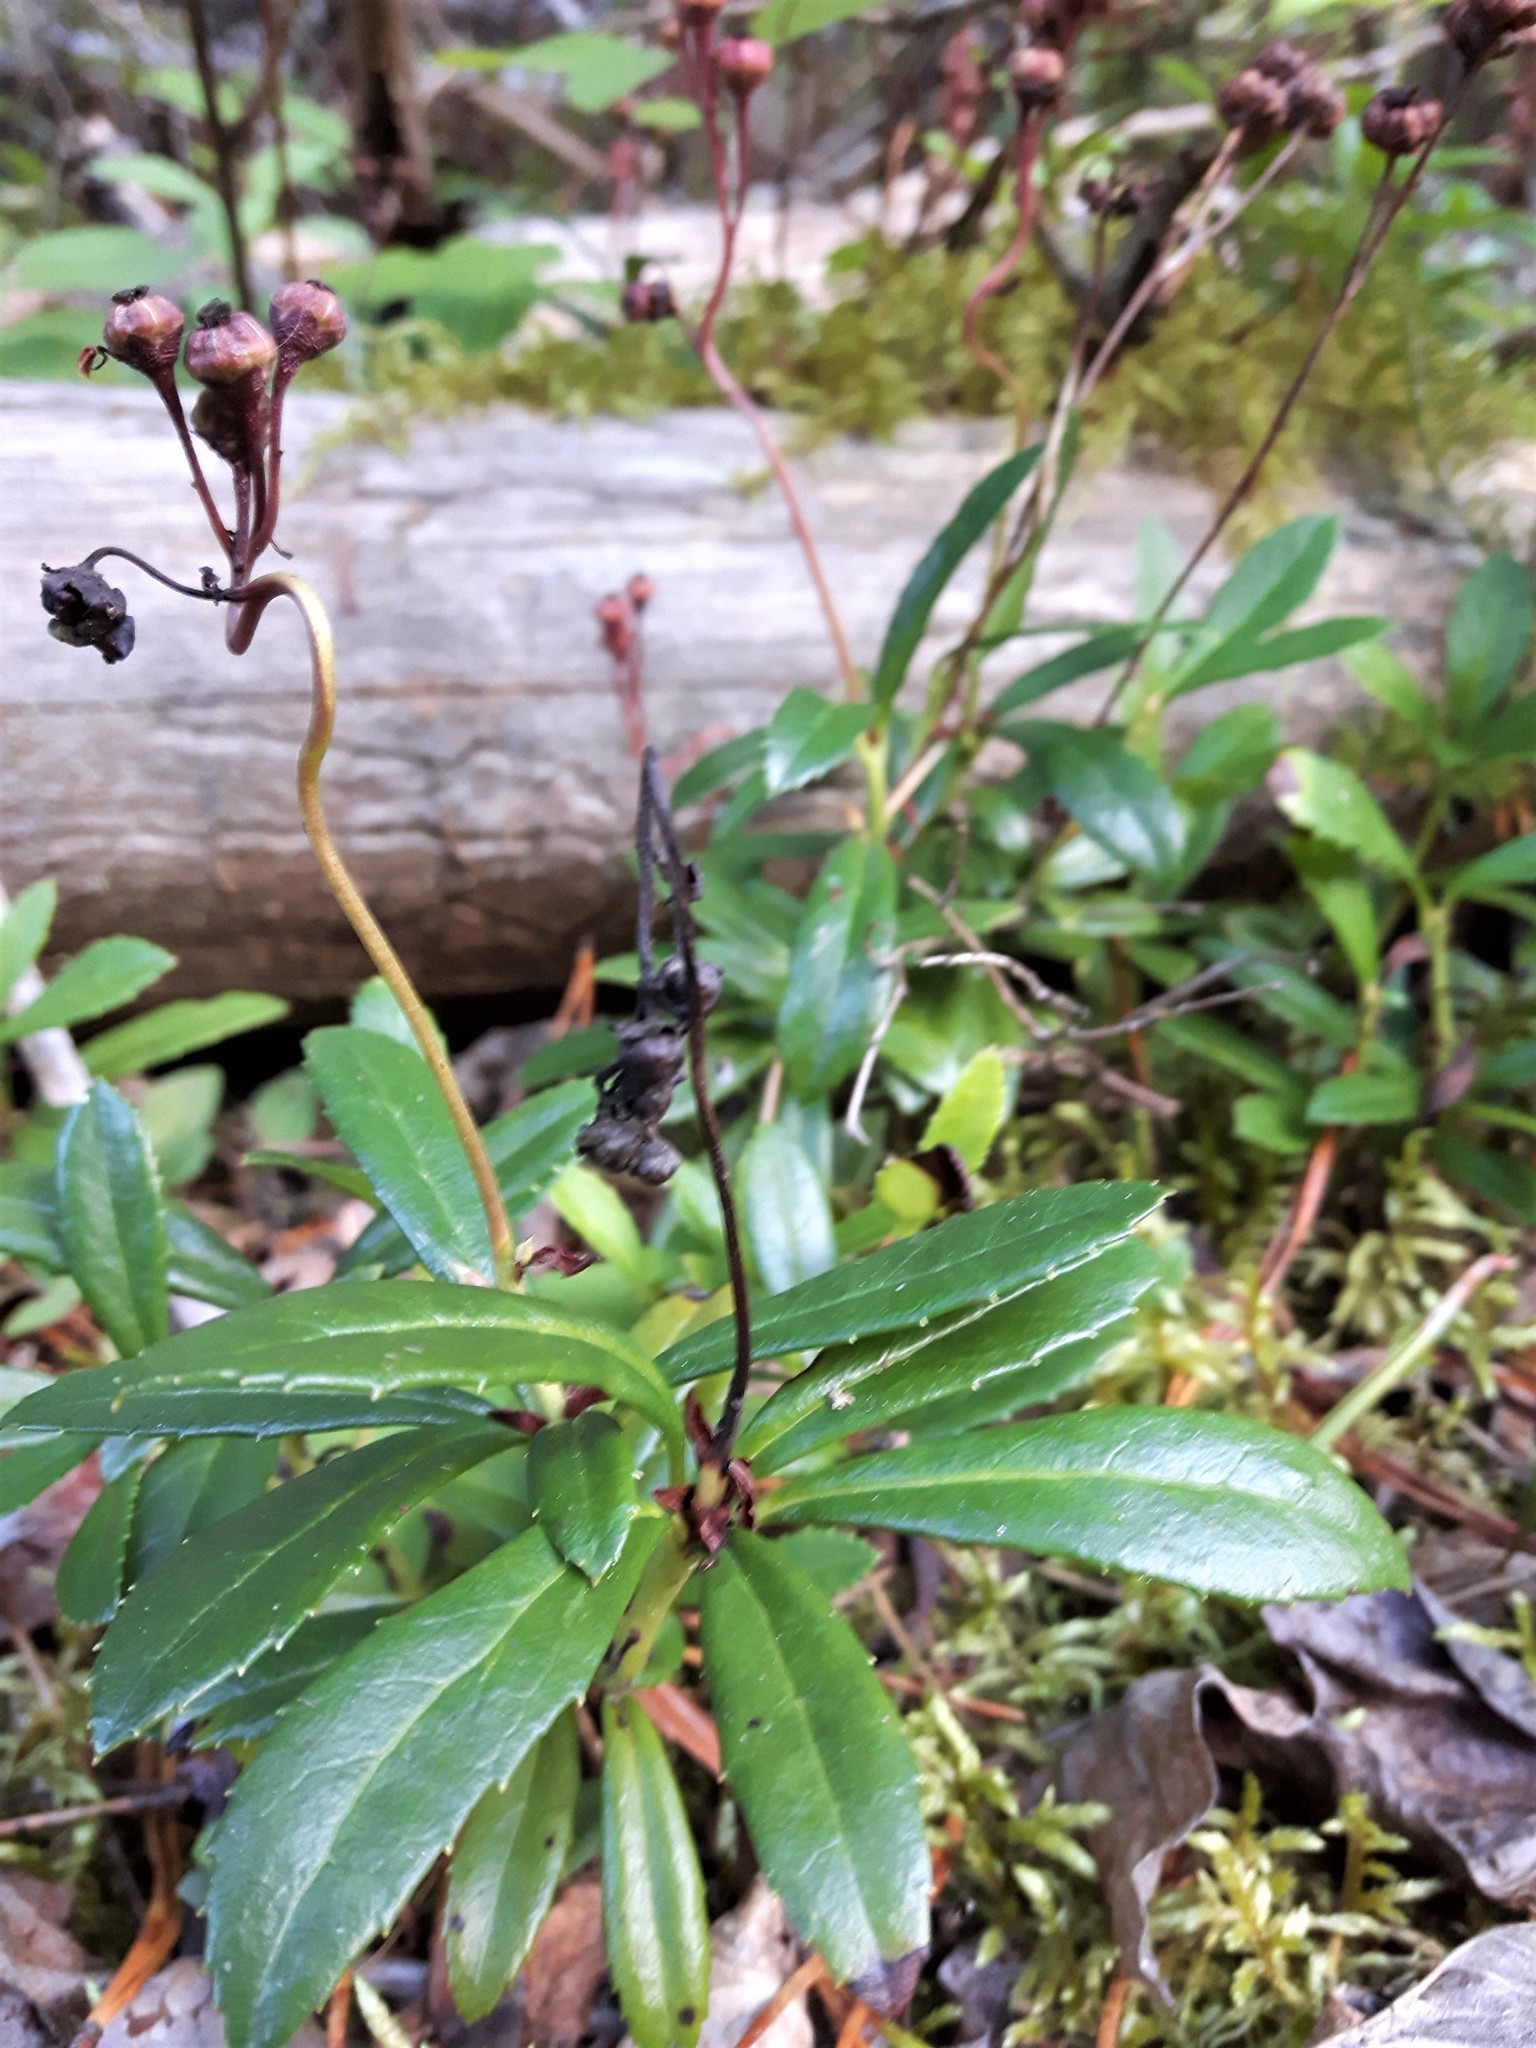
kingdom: Plantae
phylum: Tracheophyta
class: Magnoliopsida
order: Ericales
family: Ericaceae
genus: Chimaphila
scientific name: Chimaphila umbellata
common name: Pipsissewa
